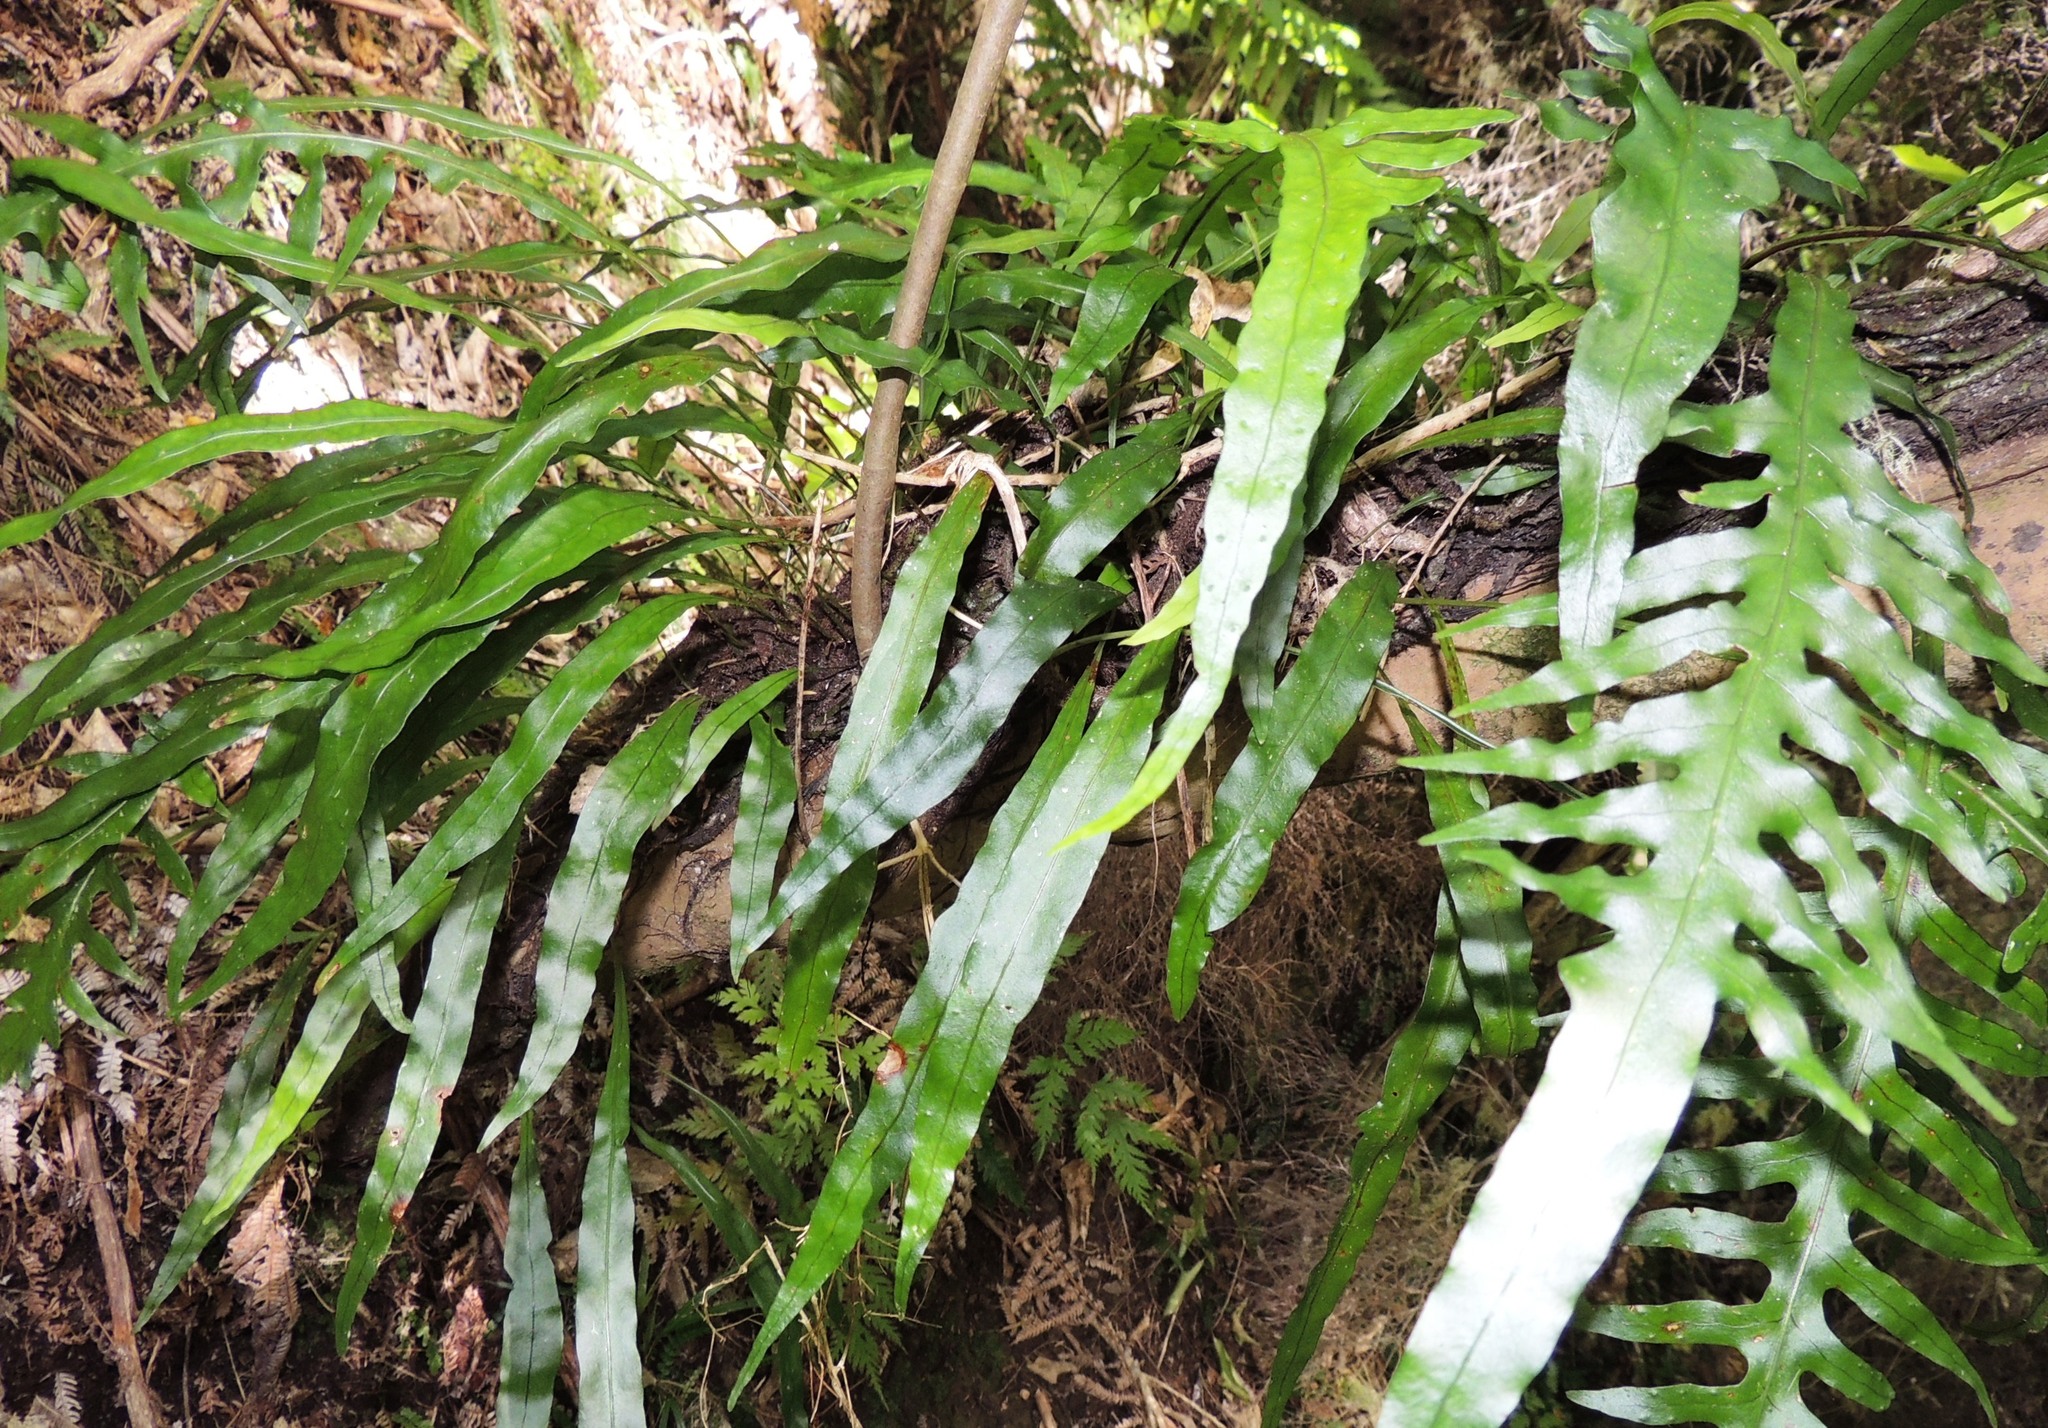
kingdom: Plantae
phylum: Tracheophyta
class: Polypodiopsida
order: Polypodiales
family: Polypodiaceae
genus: Lecanopteris
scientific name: Lecanopteris scandens
